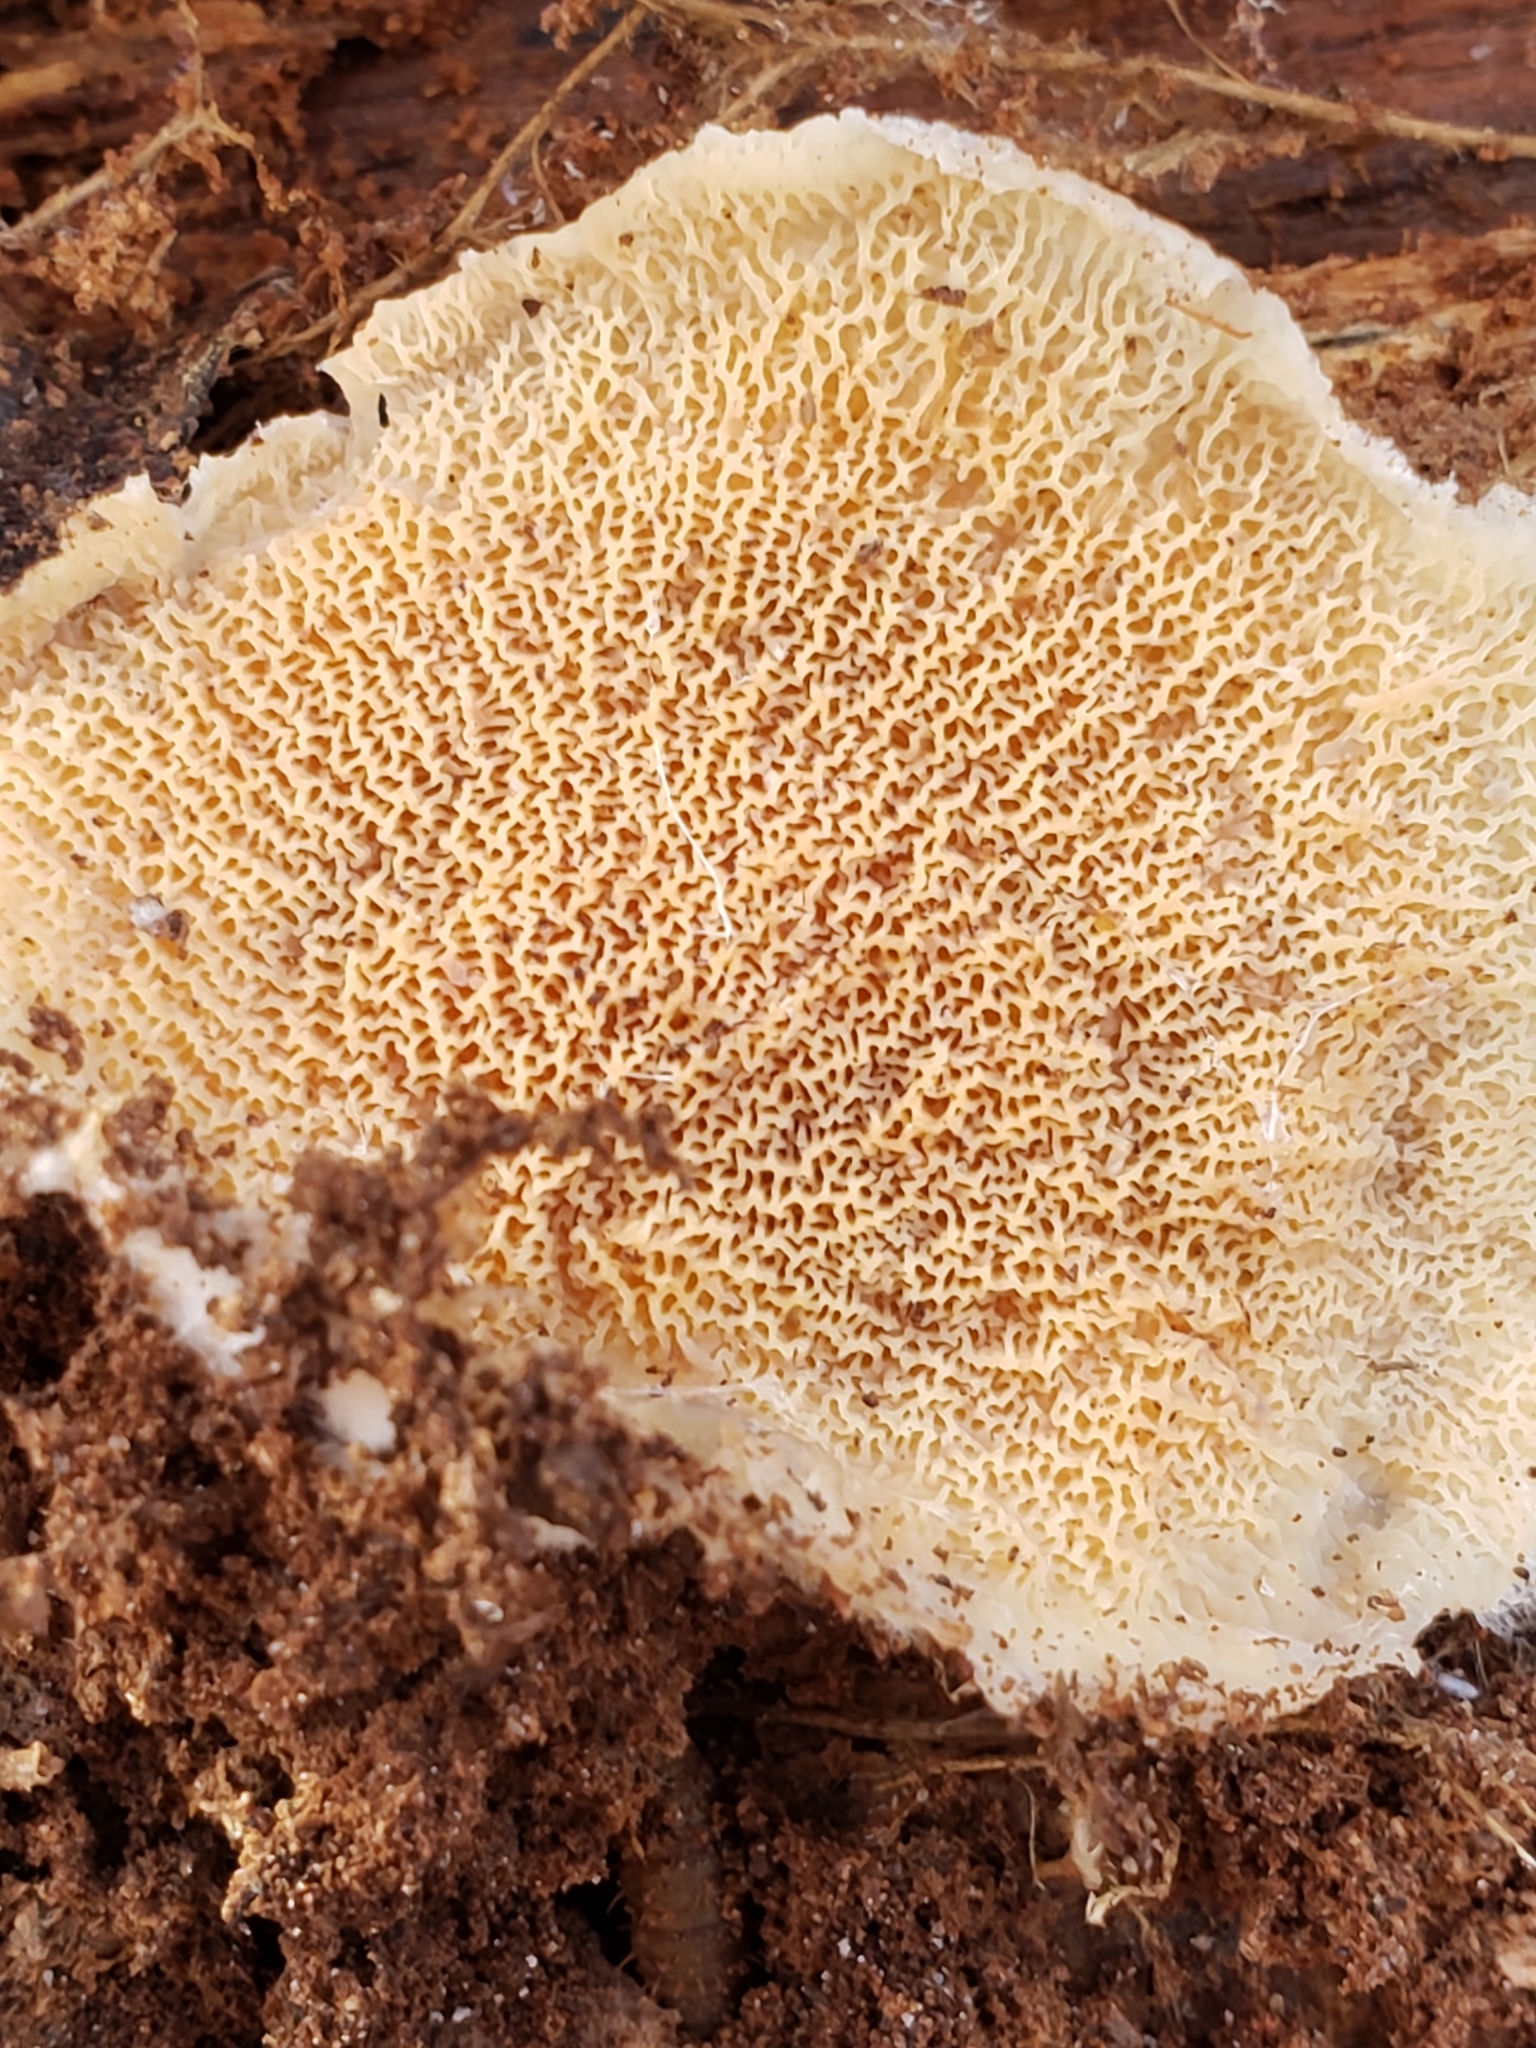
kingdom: Fungi
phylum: Basidiomycota
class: Agaricomycetes
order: Polyporales
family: Meruliaceae
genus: Phlebia
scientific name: Phlebia tremellosa
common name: Jelly rot
